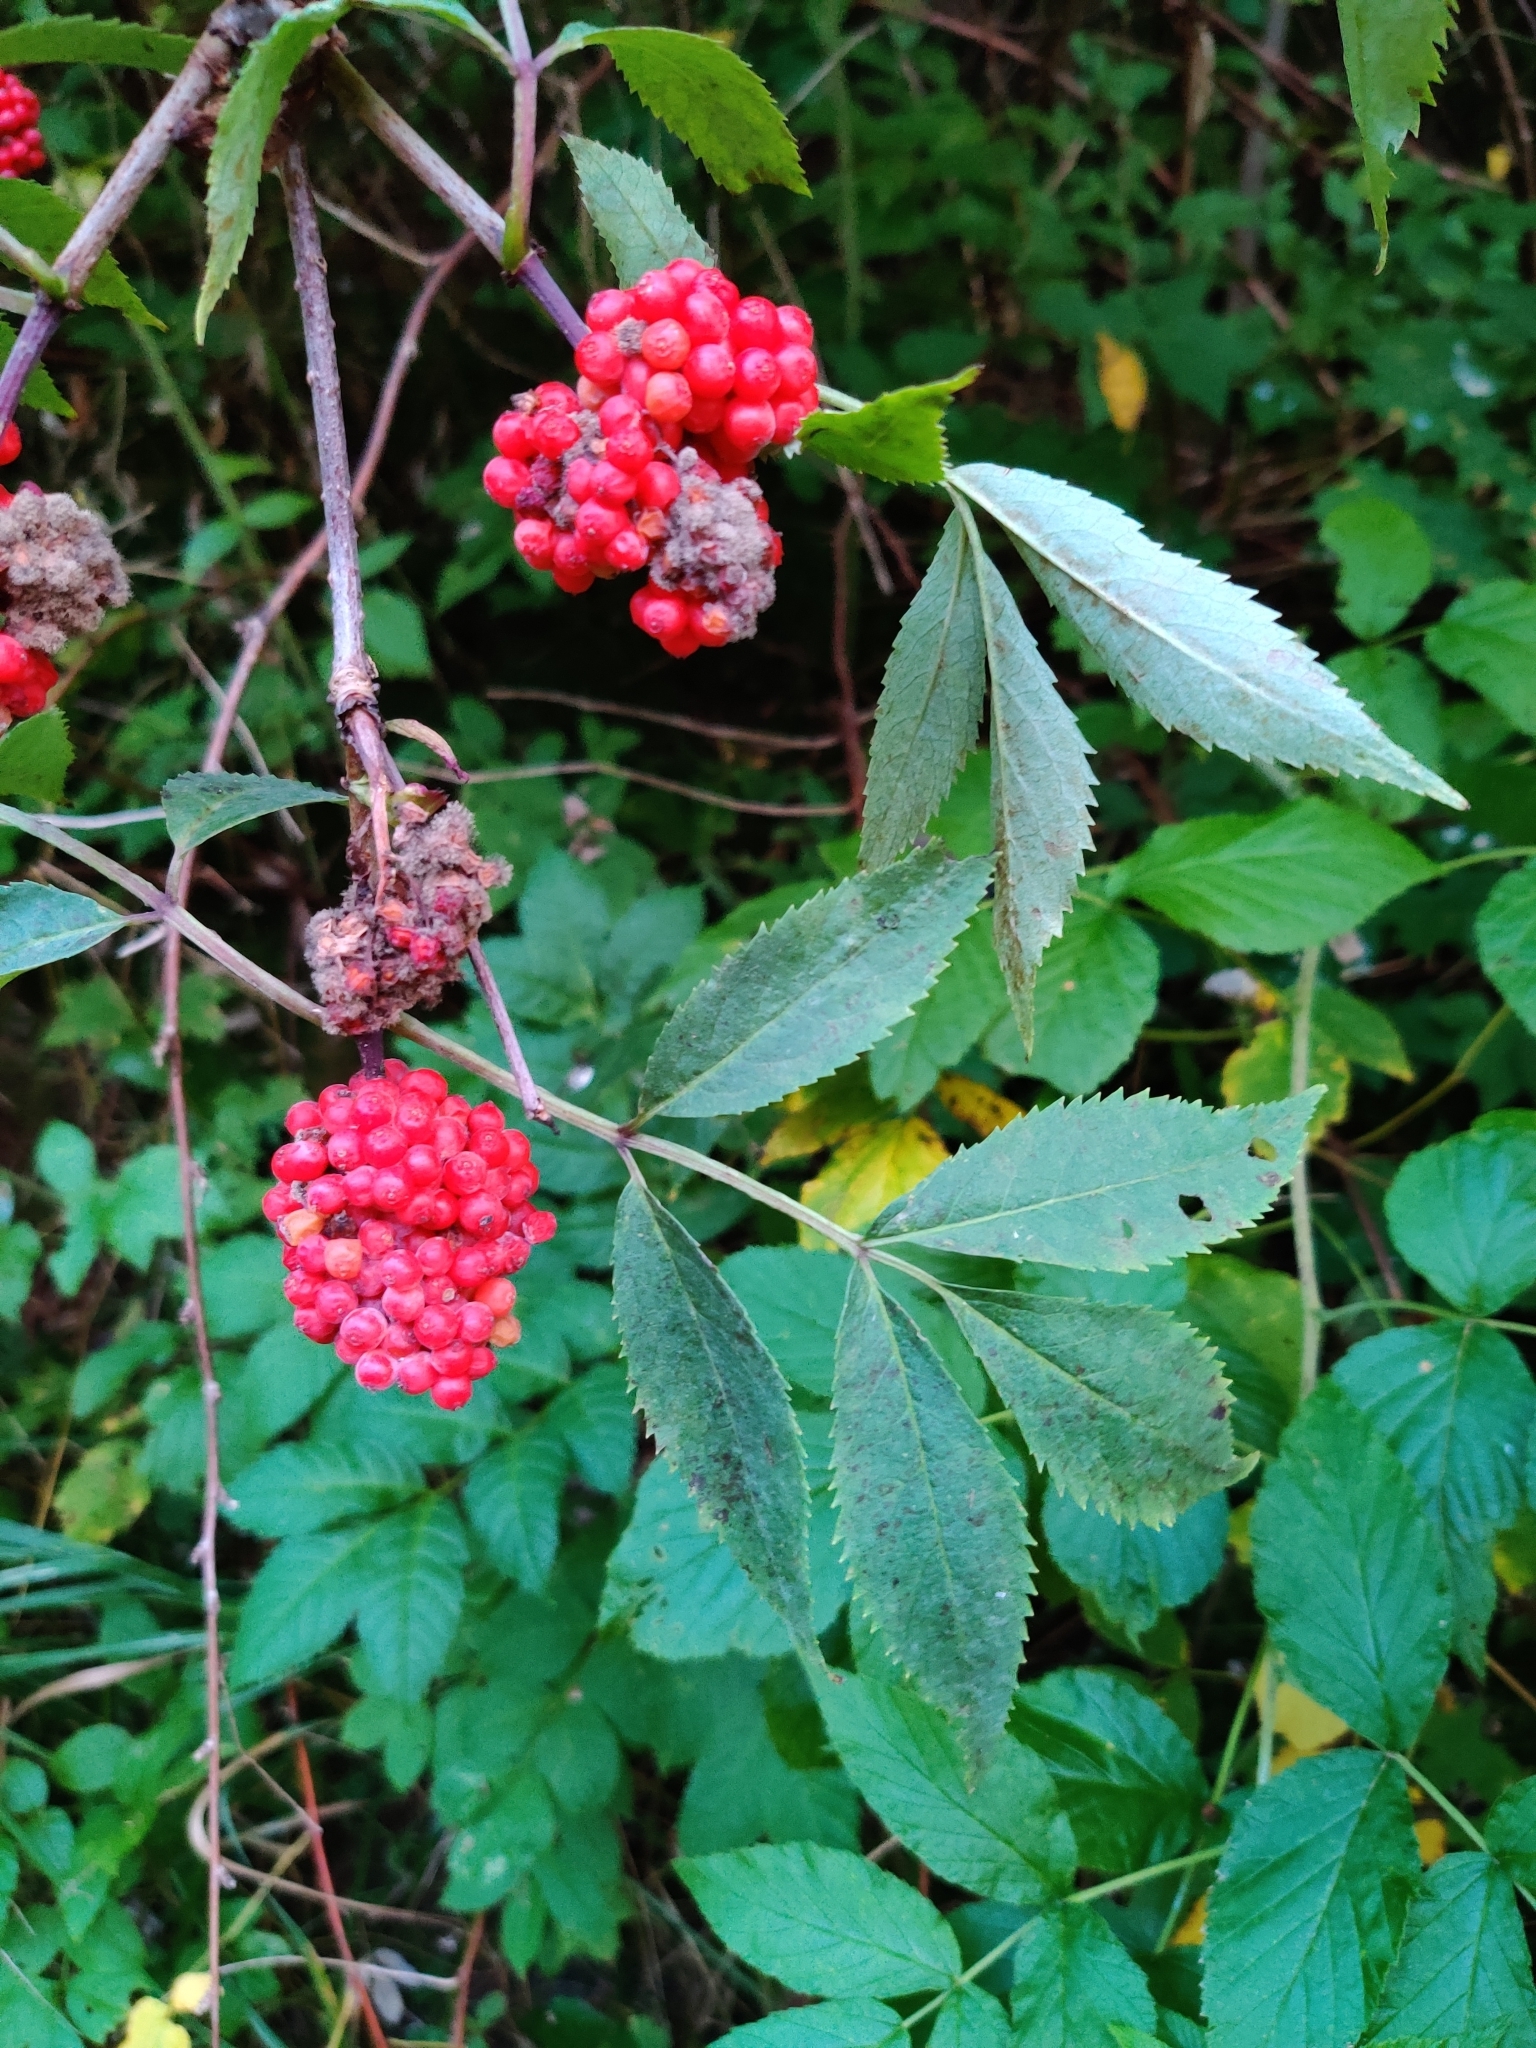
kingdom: Plantae
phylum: Tracheophyta
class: Magnoliopsida
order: Dipsacales
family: Viburnaceae
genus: Sambucus
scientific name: Sambucus racemosa
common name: Red-berried elder
